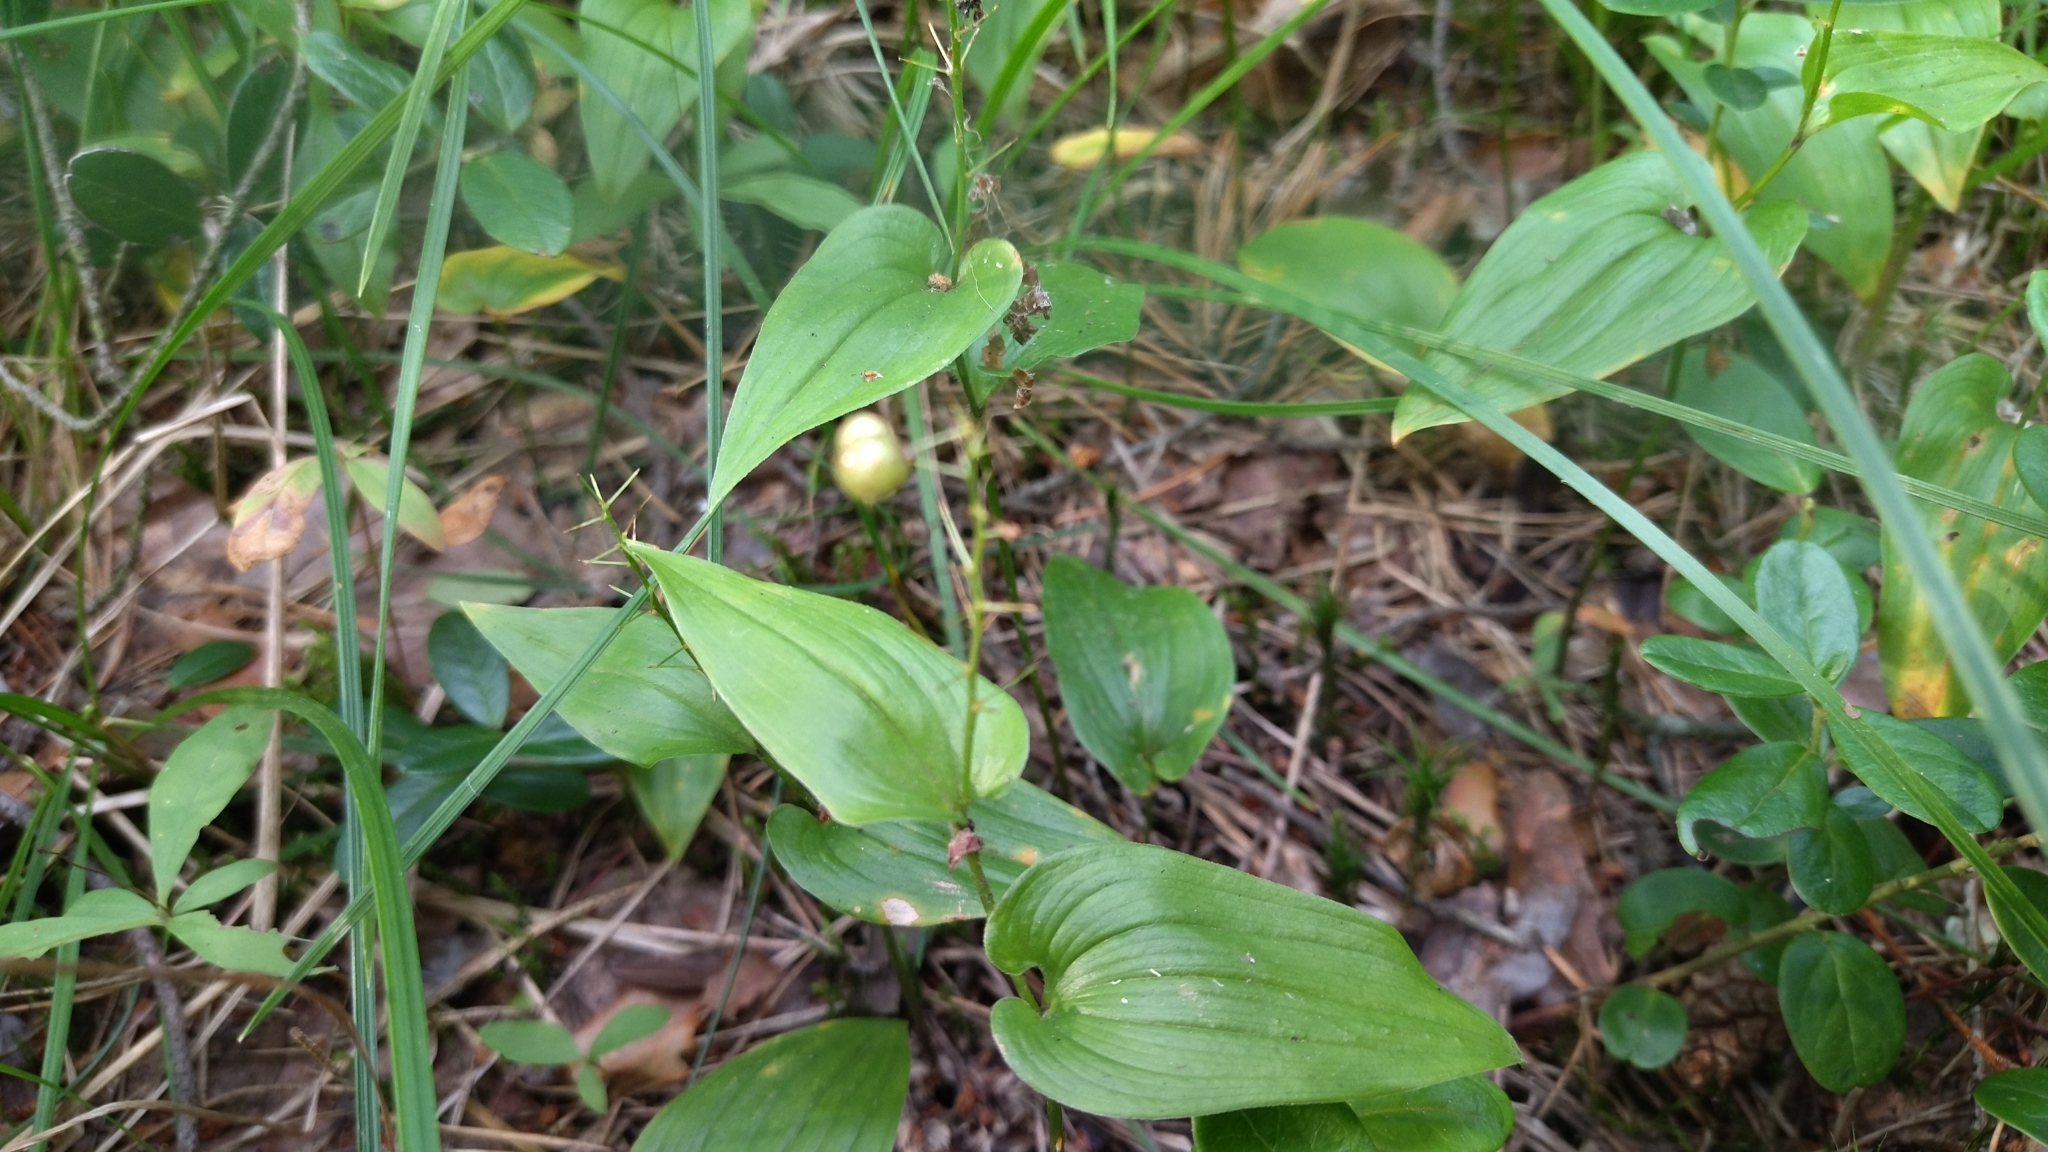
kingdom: Plantae
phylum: Tracheophyta
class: Liliopsida
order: Asparagales
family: Asparagaceae
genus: Maianthemum
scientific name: Maianthemum bifolium
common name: May lily
